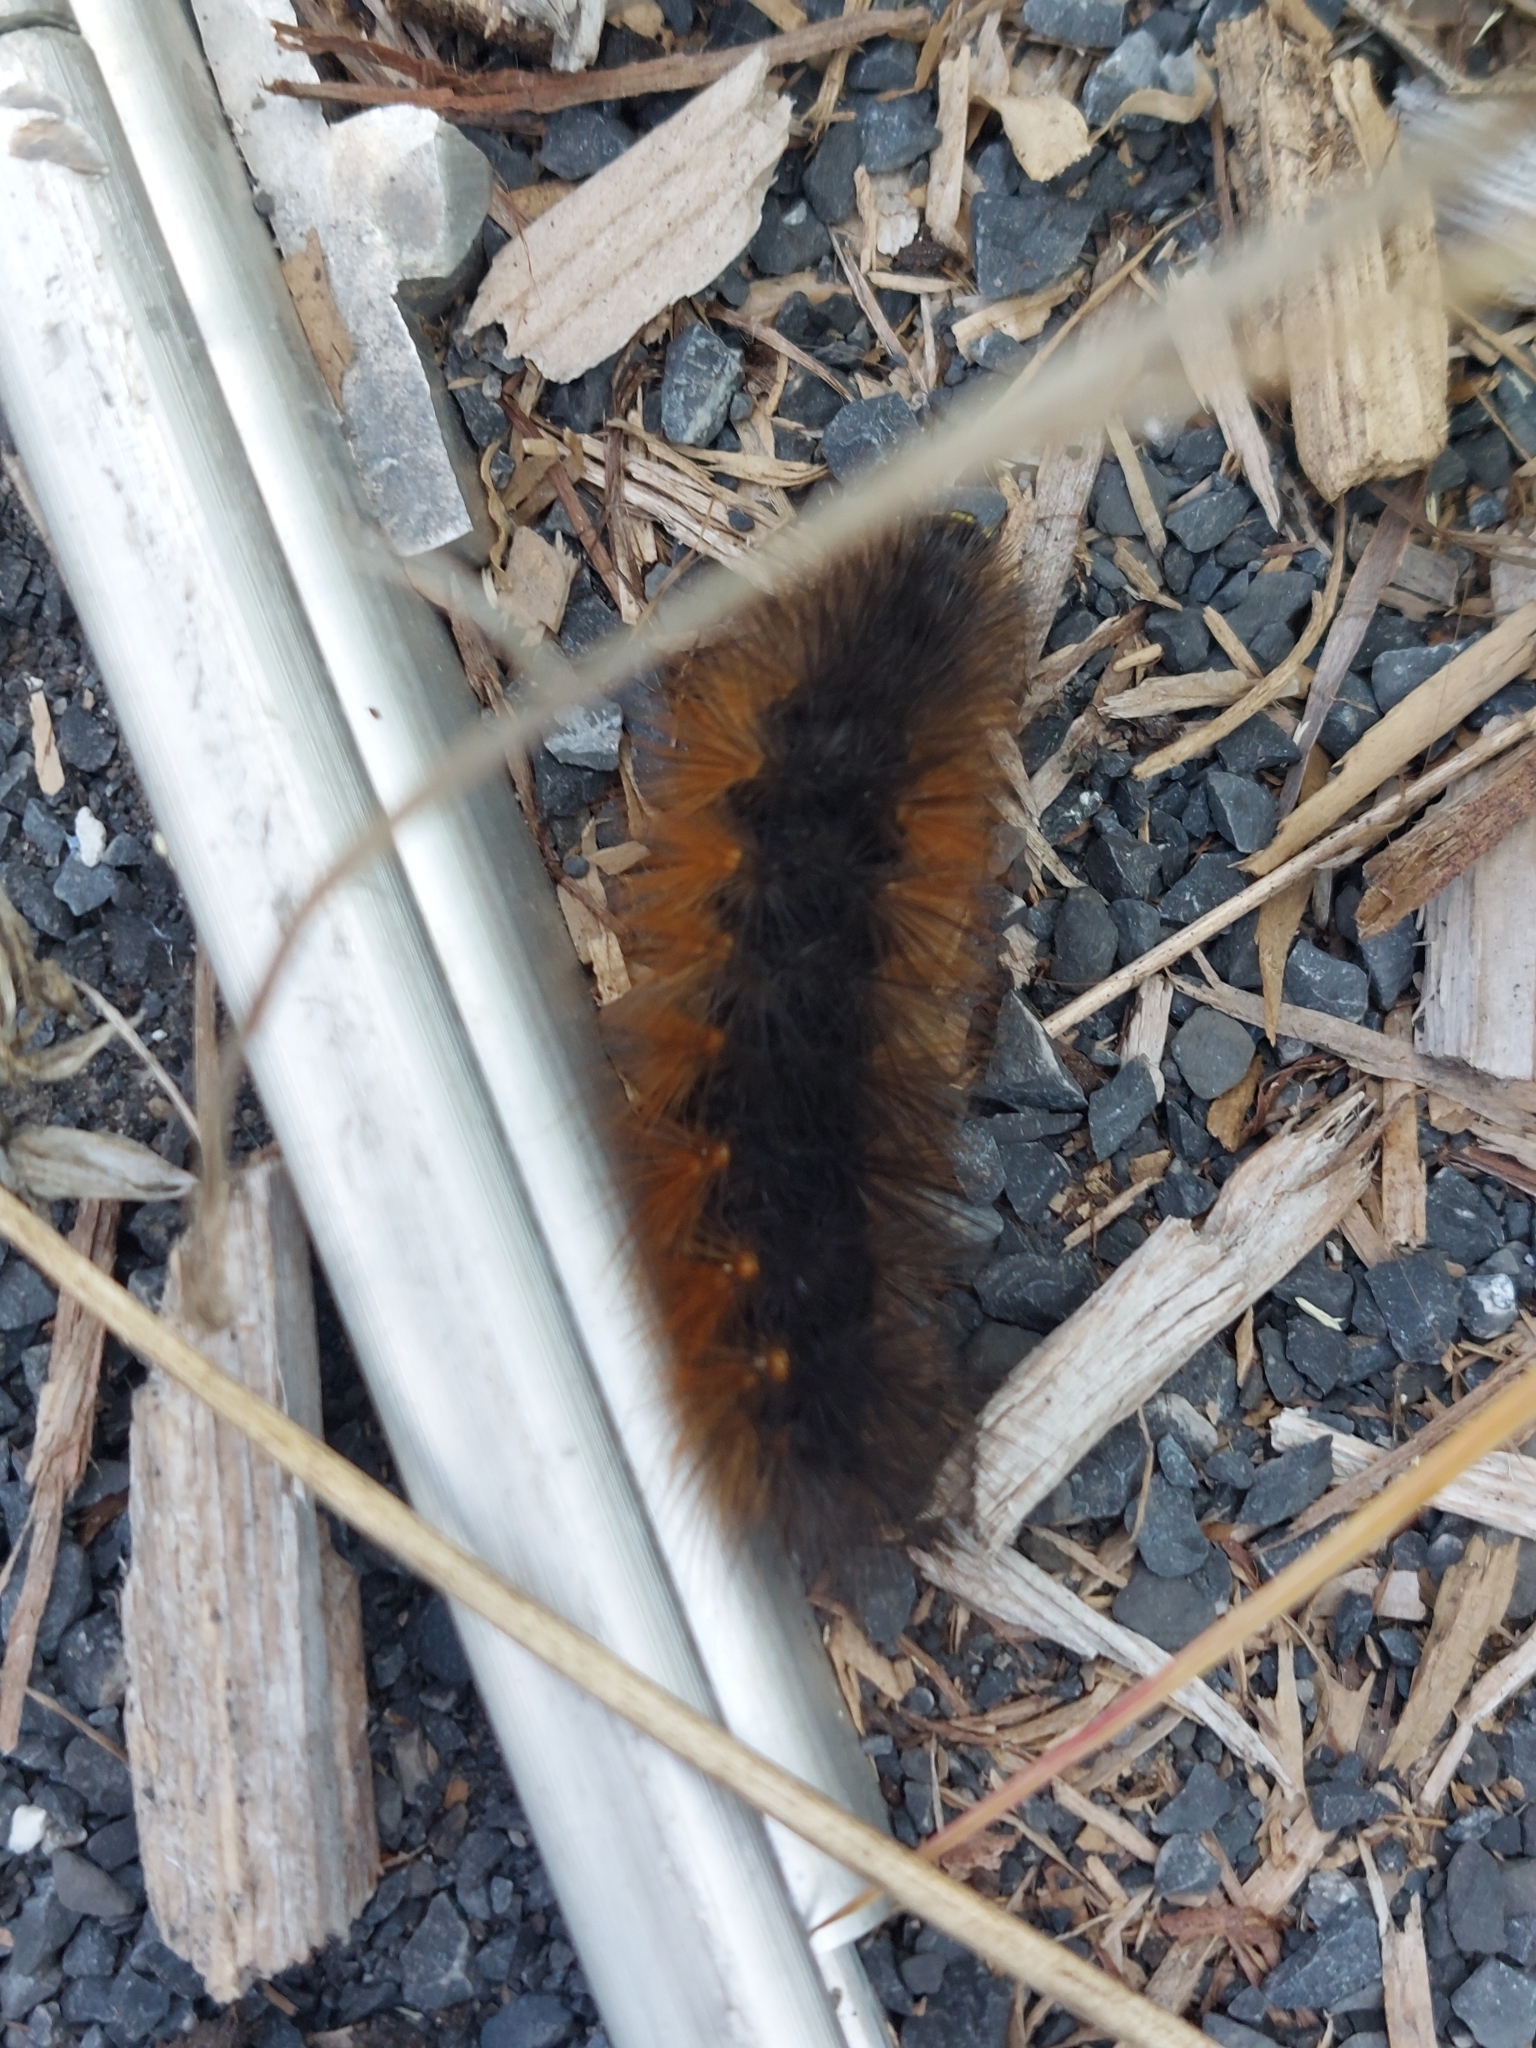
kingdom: Animalia
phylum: Arthropoda
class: Insecta
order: Lepidoptera
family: Erebidae
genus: Estigmene
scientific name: Estigmene acrea
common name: Salt marsh moth
